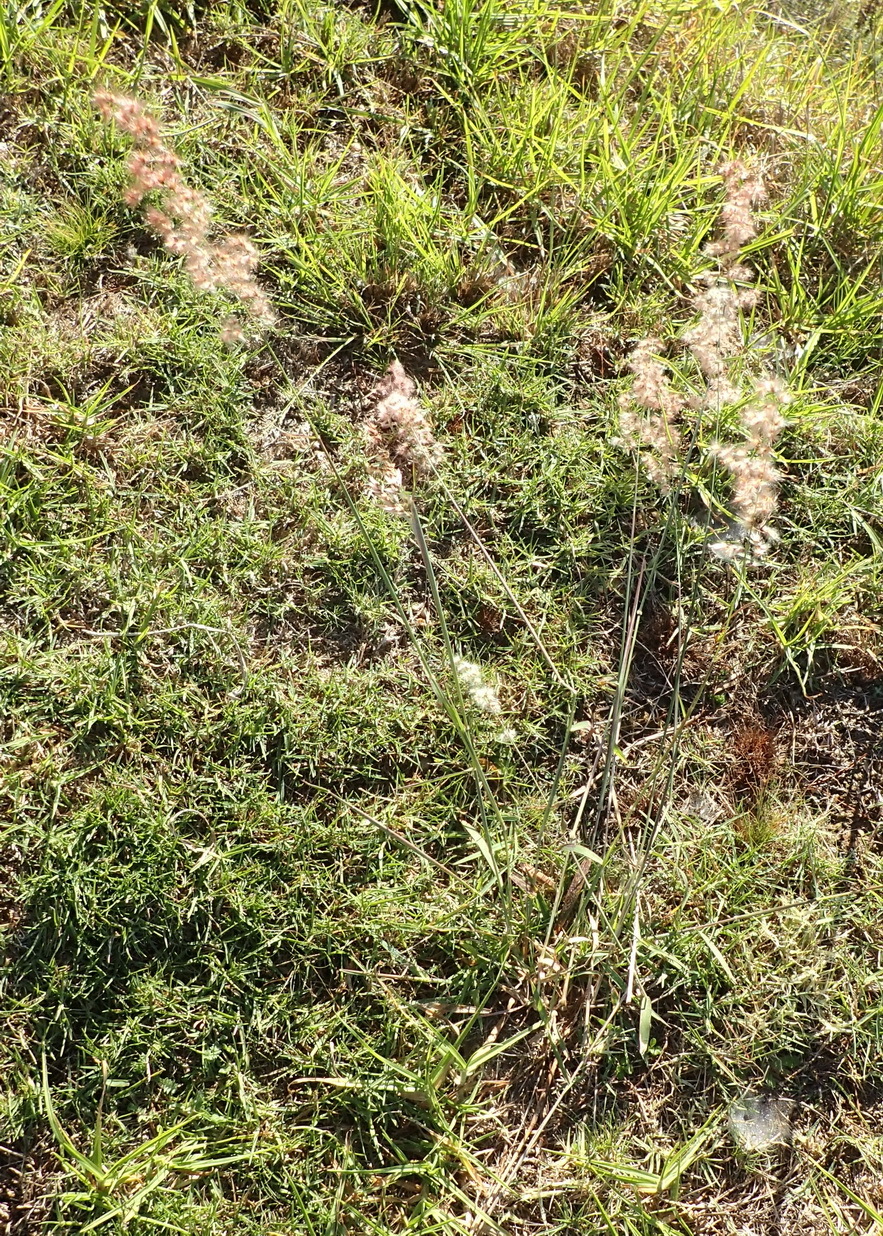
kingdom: Plantae
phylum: Tracheophyta
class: Liliopsida
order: Poales
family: Poaceae
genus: Melinis
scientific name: Melinis repens
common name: Rose natal grass
